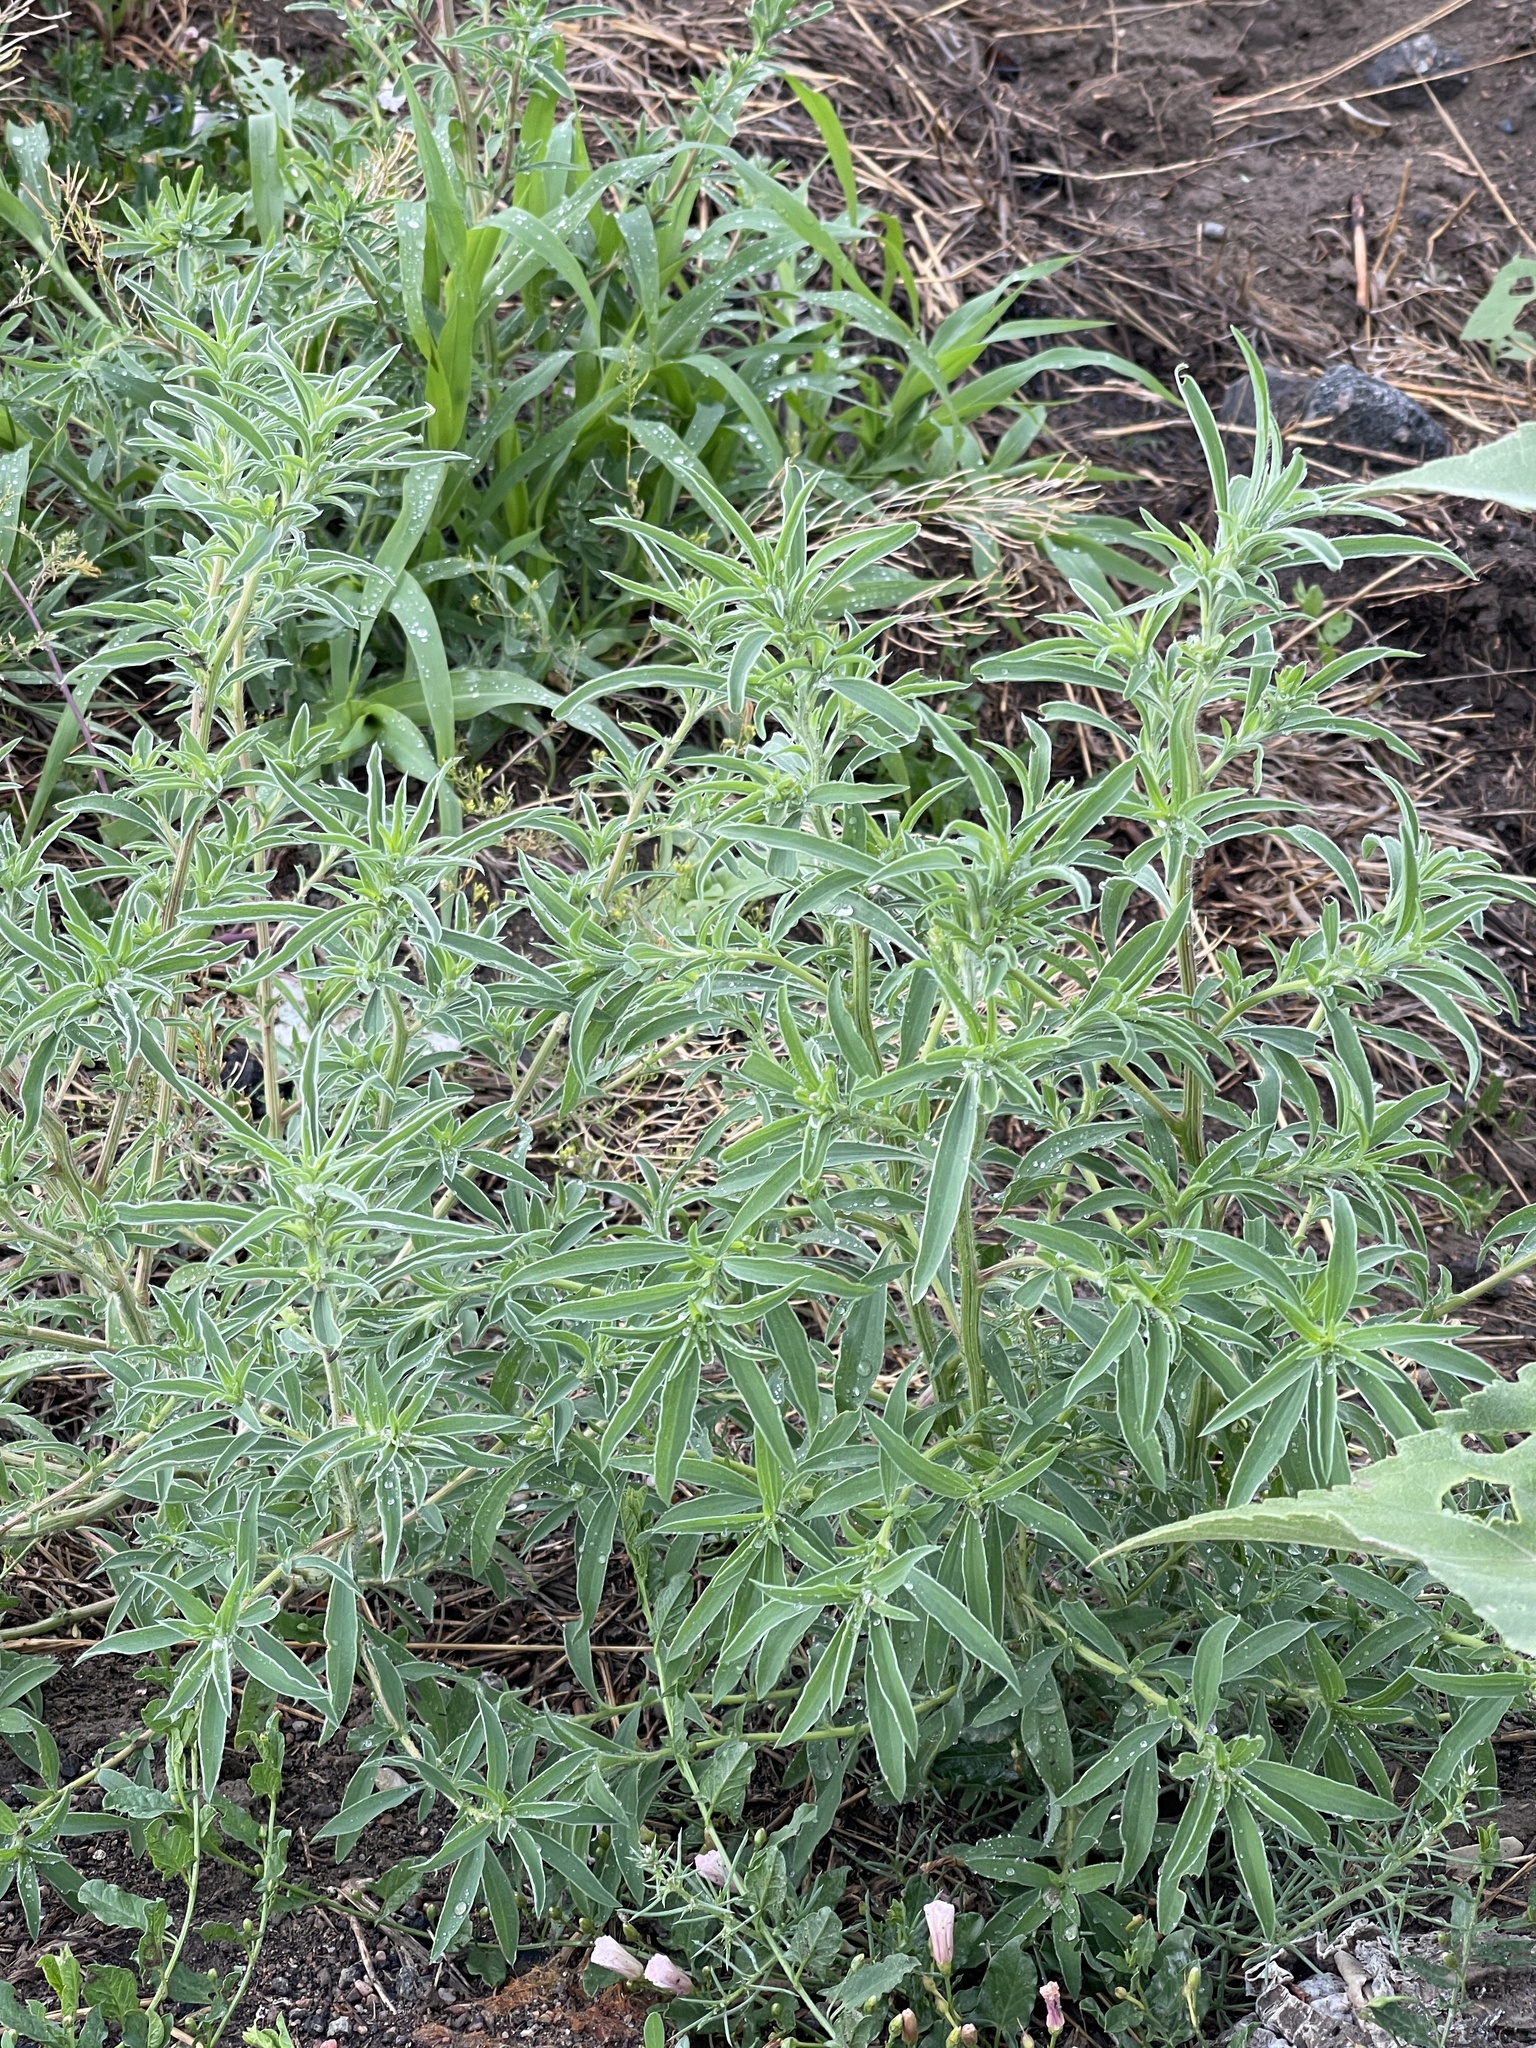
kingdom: Plantae
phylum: Tracheophyta
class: Magnoliopsida
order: Caryophyllales
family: Amaranthaceae
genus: Bassia
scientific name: Bassia scoparia
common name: Belvedere
